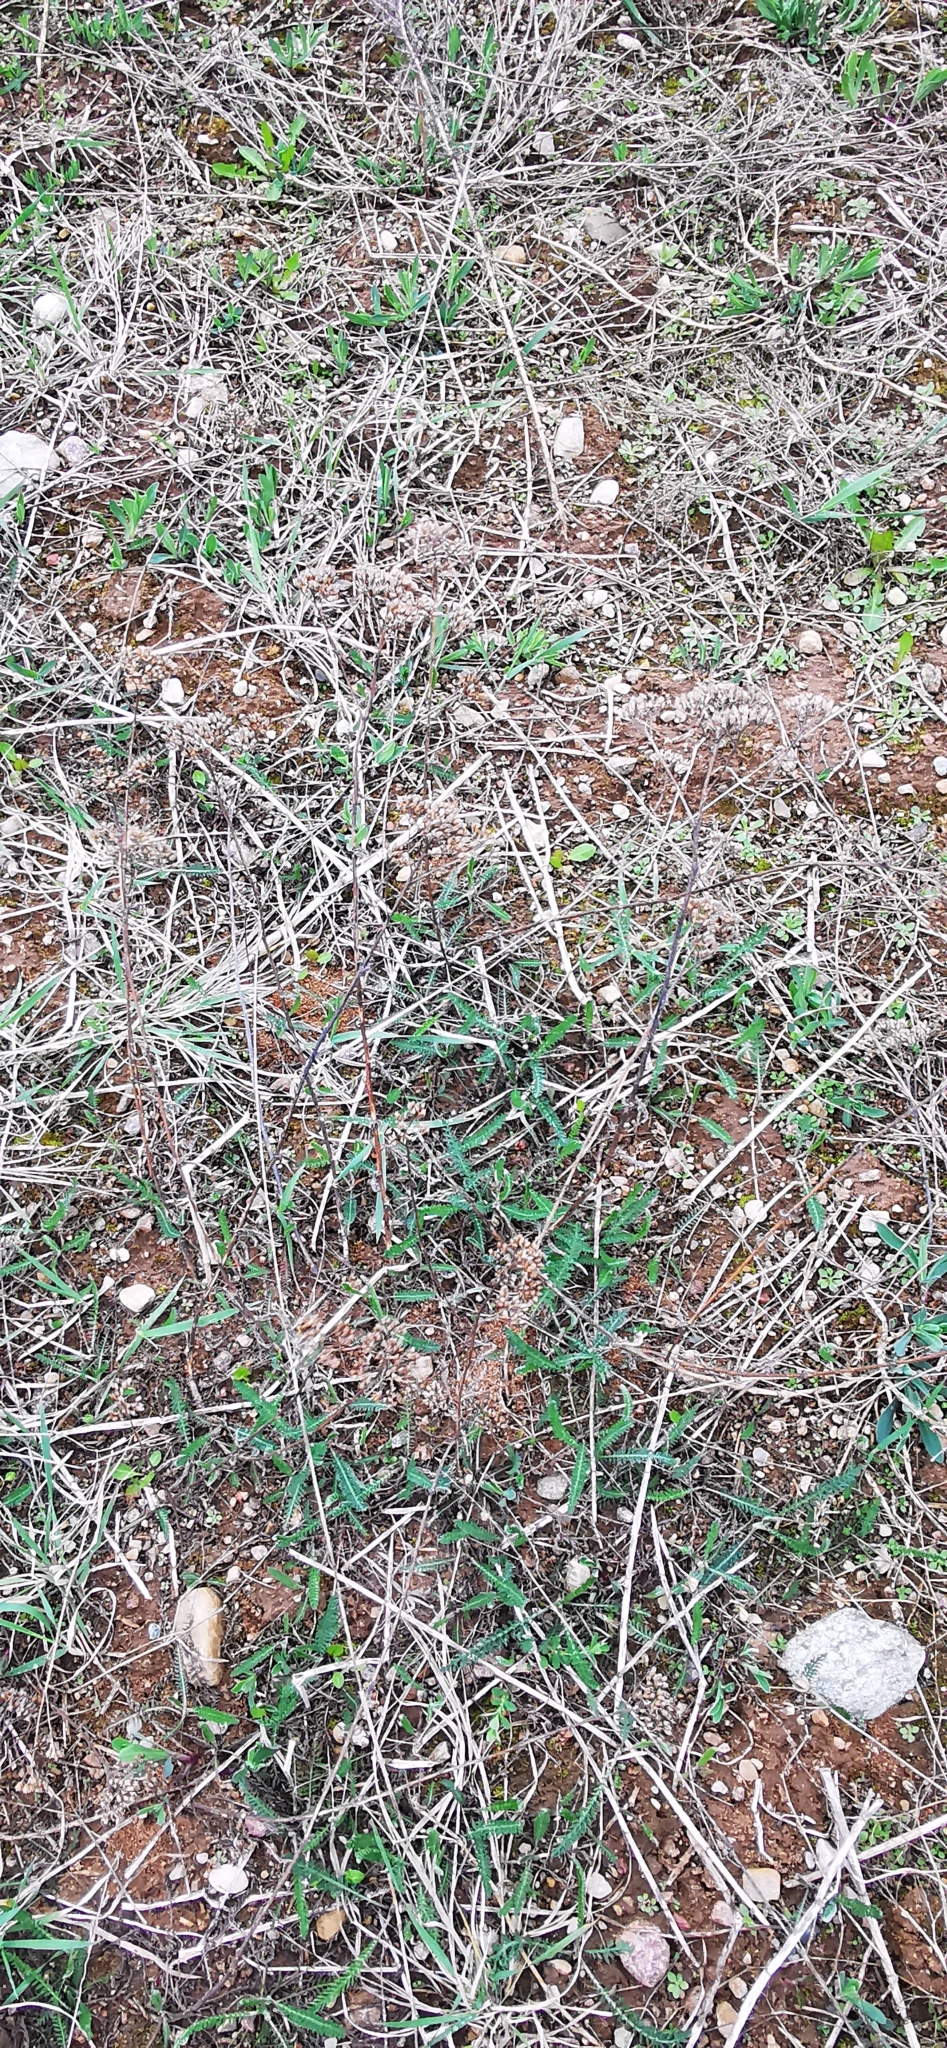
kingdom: Plantae
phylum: Tracheophyta
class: Magnoliopsida
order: Asterales
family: Asteraceae
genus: Achillea
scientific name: Achillea millefolium
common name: Yarrow
